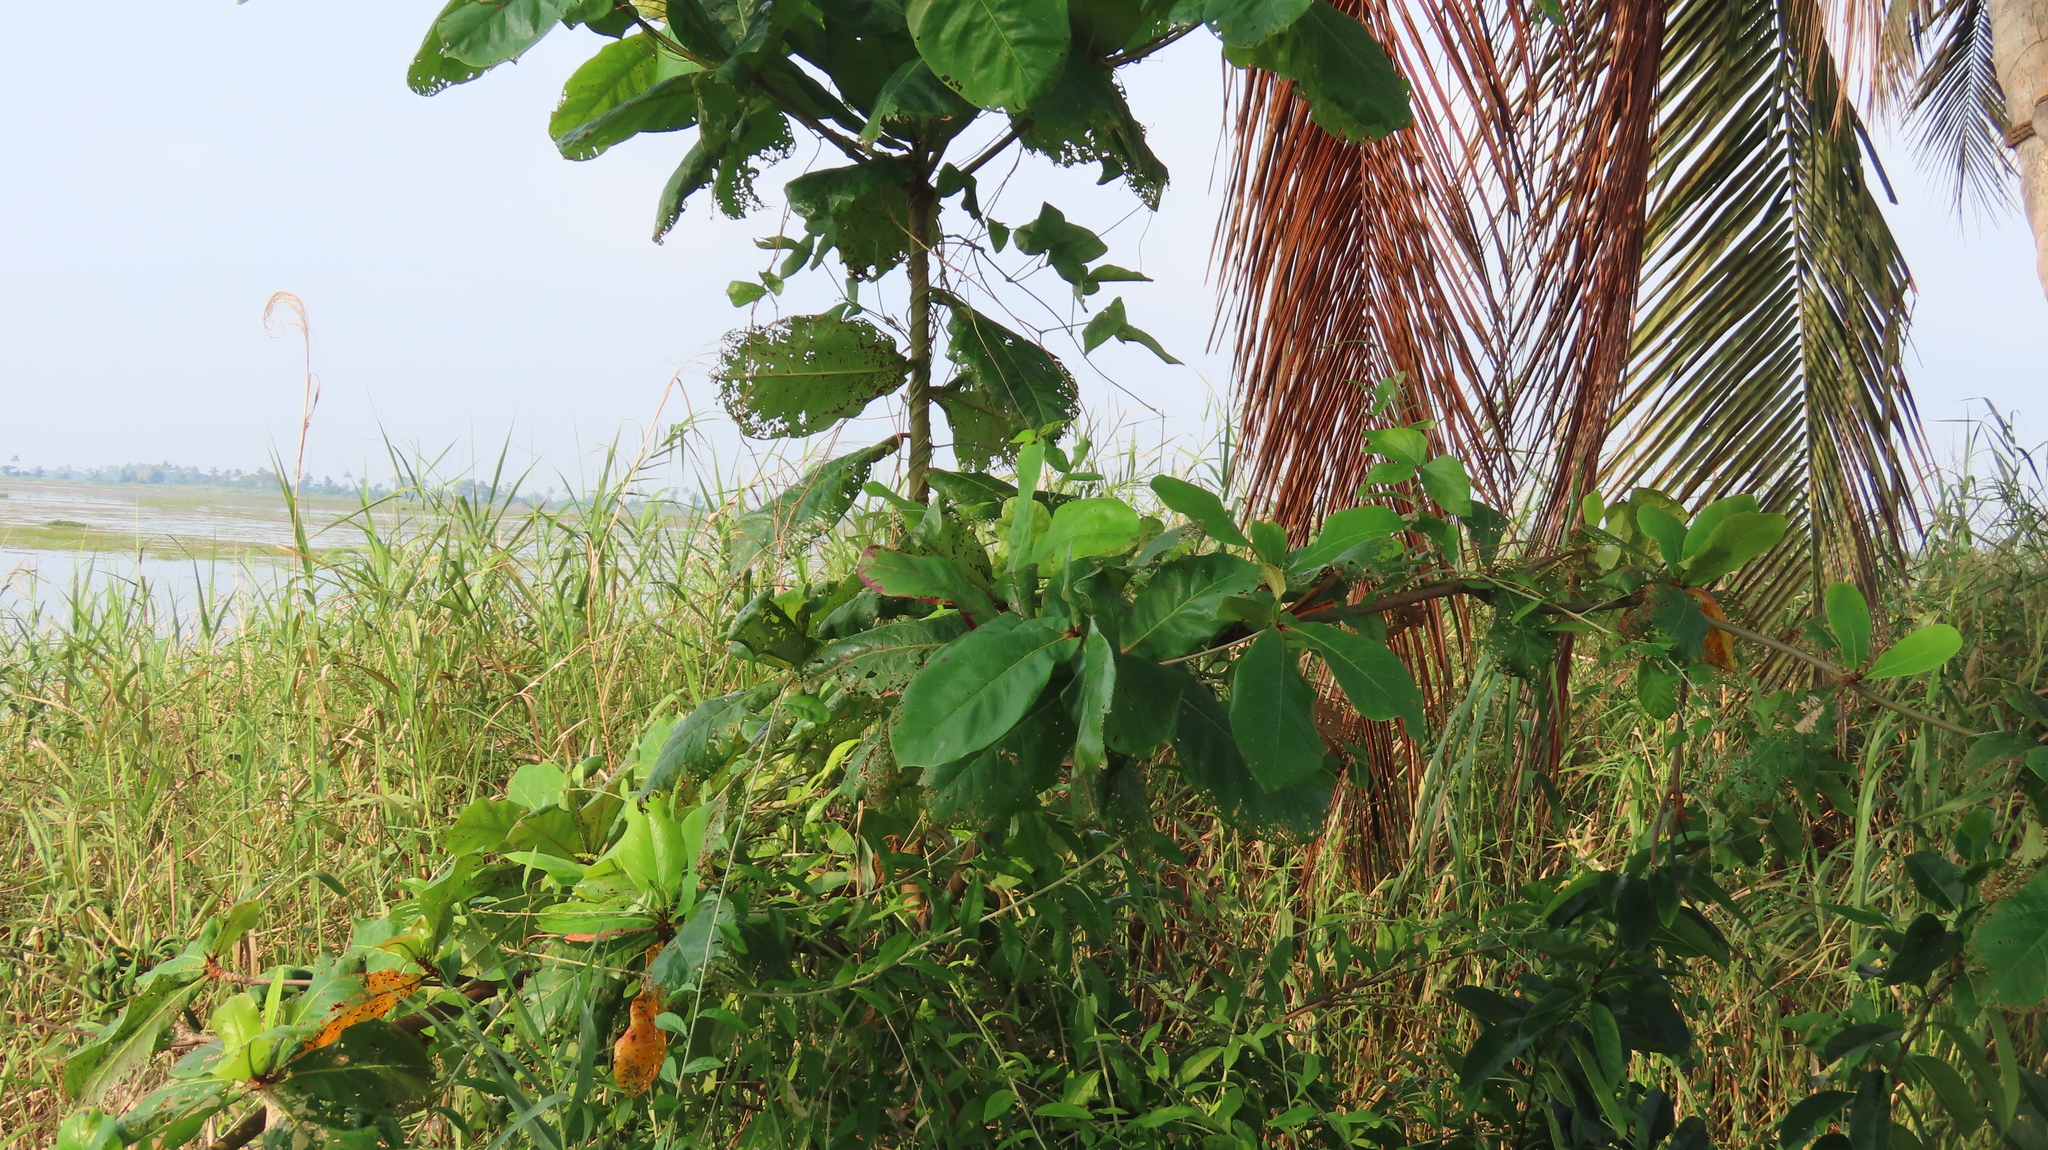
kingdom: Plantae
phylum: Tracheophyta
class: Magnoliopsida
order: Myrtales
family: Combretaceae
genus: Terminalia
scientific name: Terminalia catappa
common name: Tropical almond
